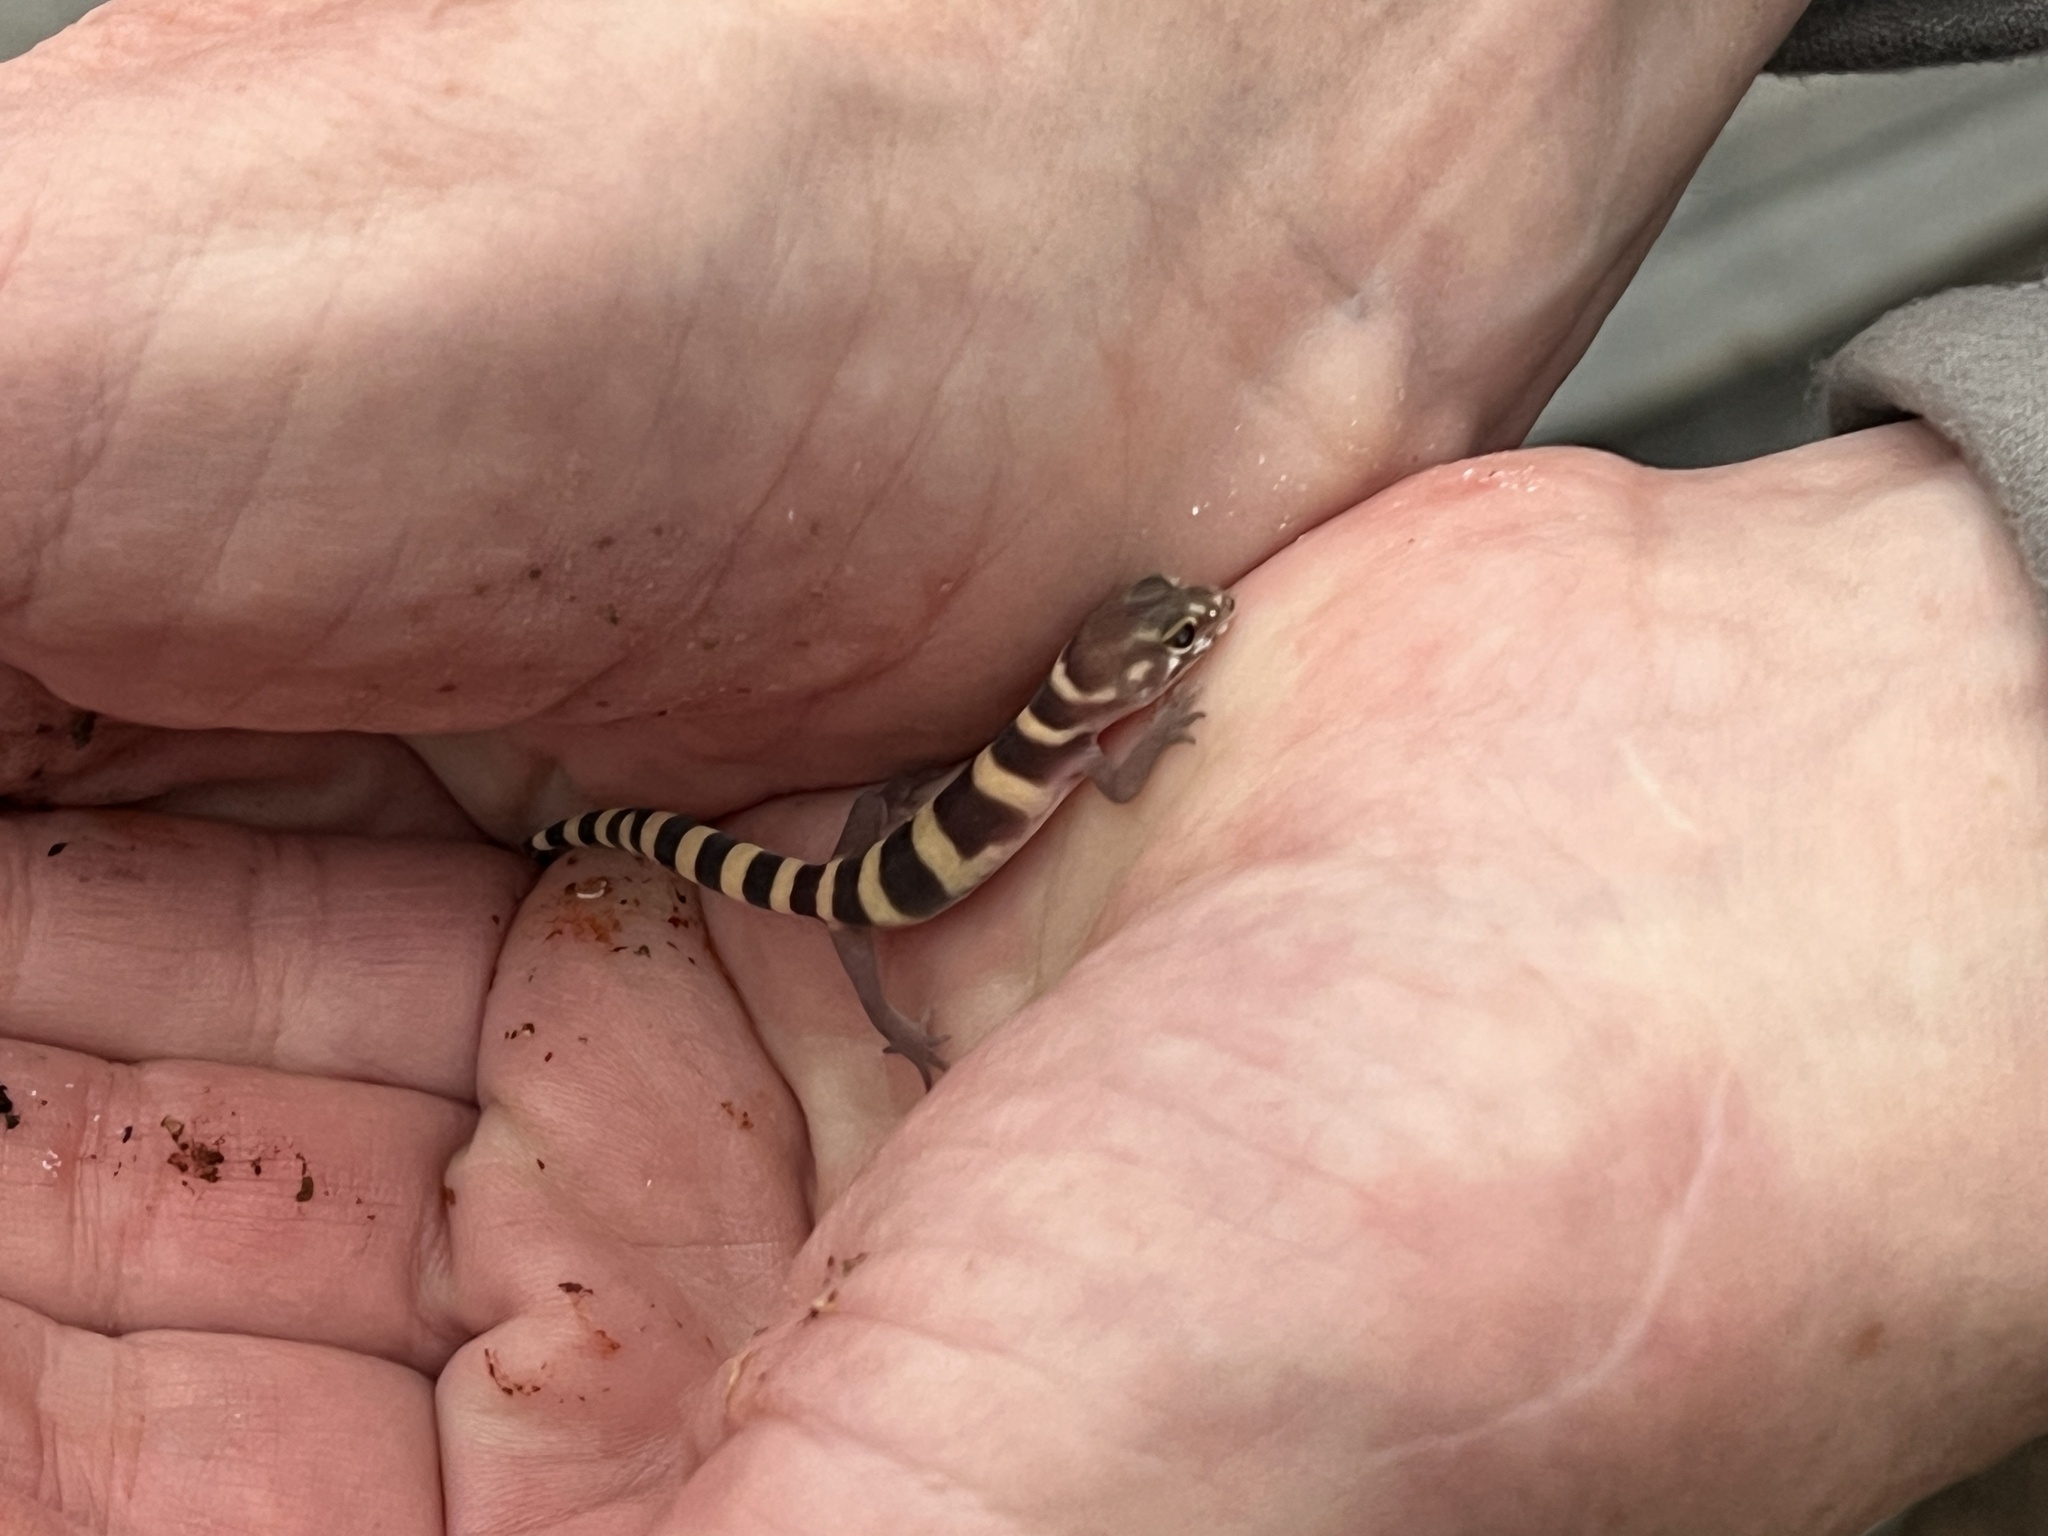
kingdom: Animalia
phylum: Chordata
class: Squamata
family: Eublepharidae
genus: Coleonyx
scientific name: Coleonyx brevis
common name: Texas banded gecko
